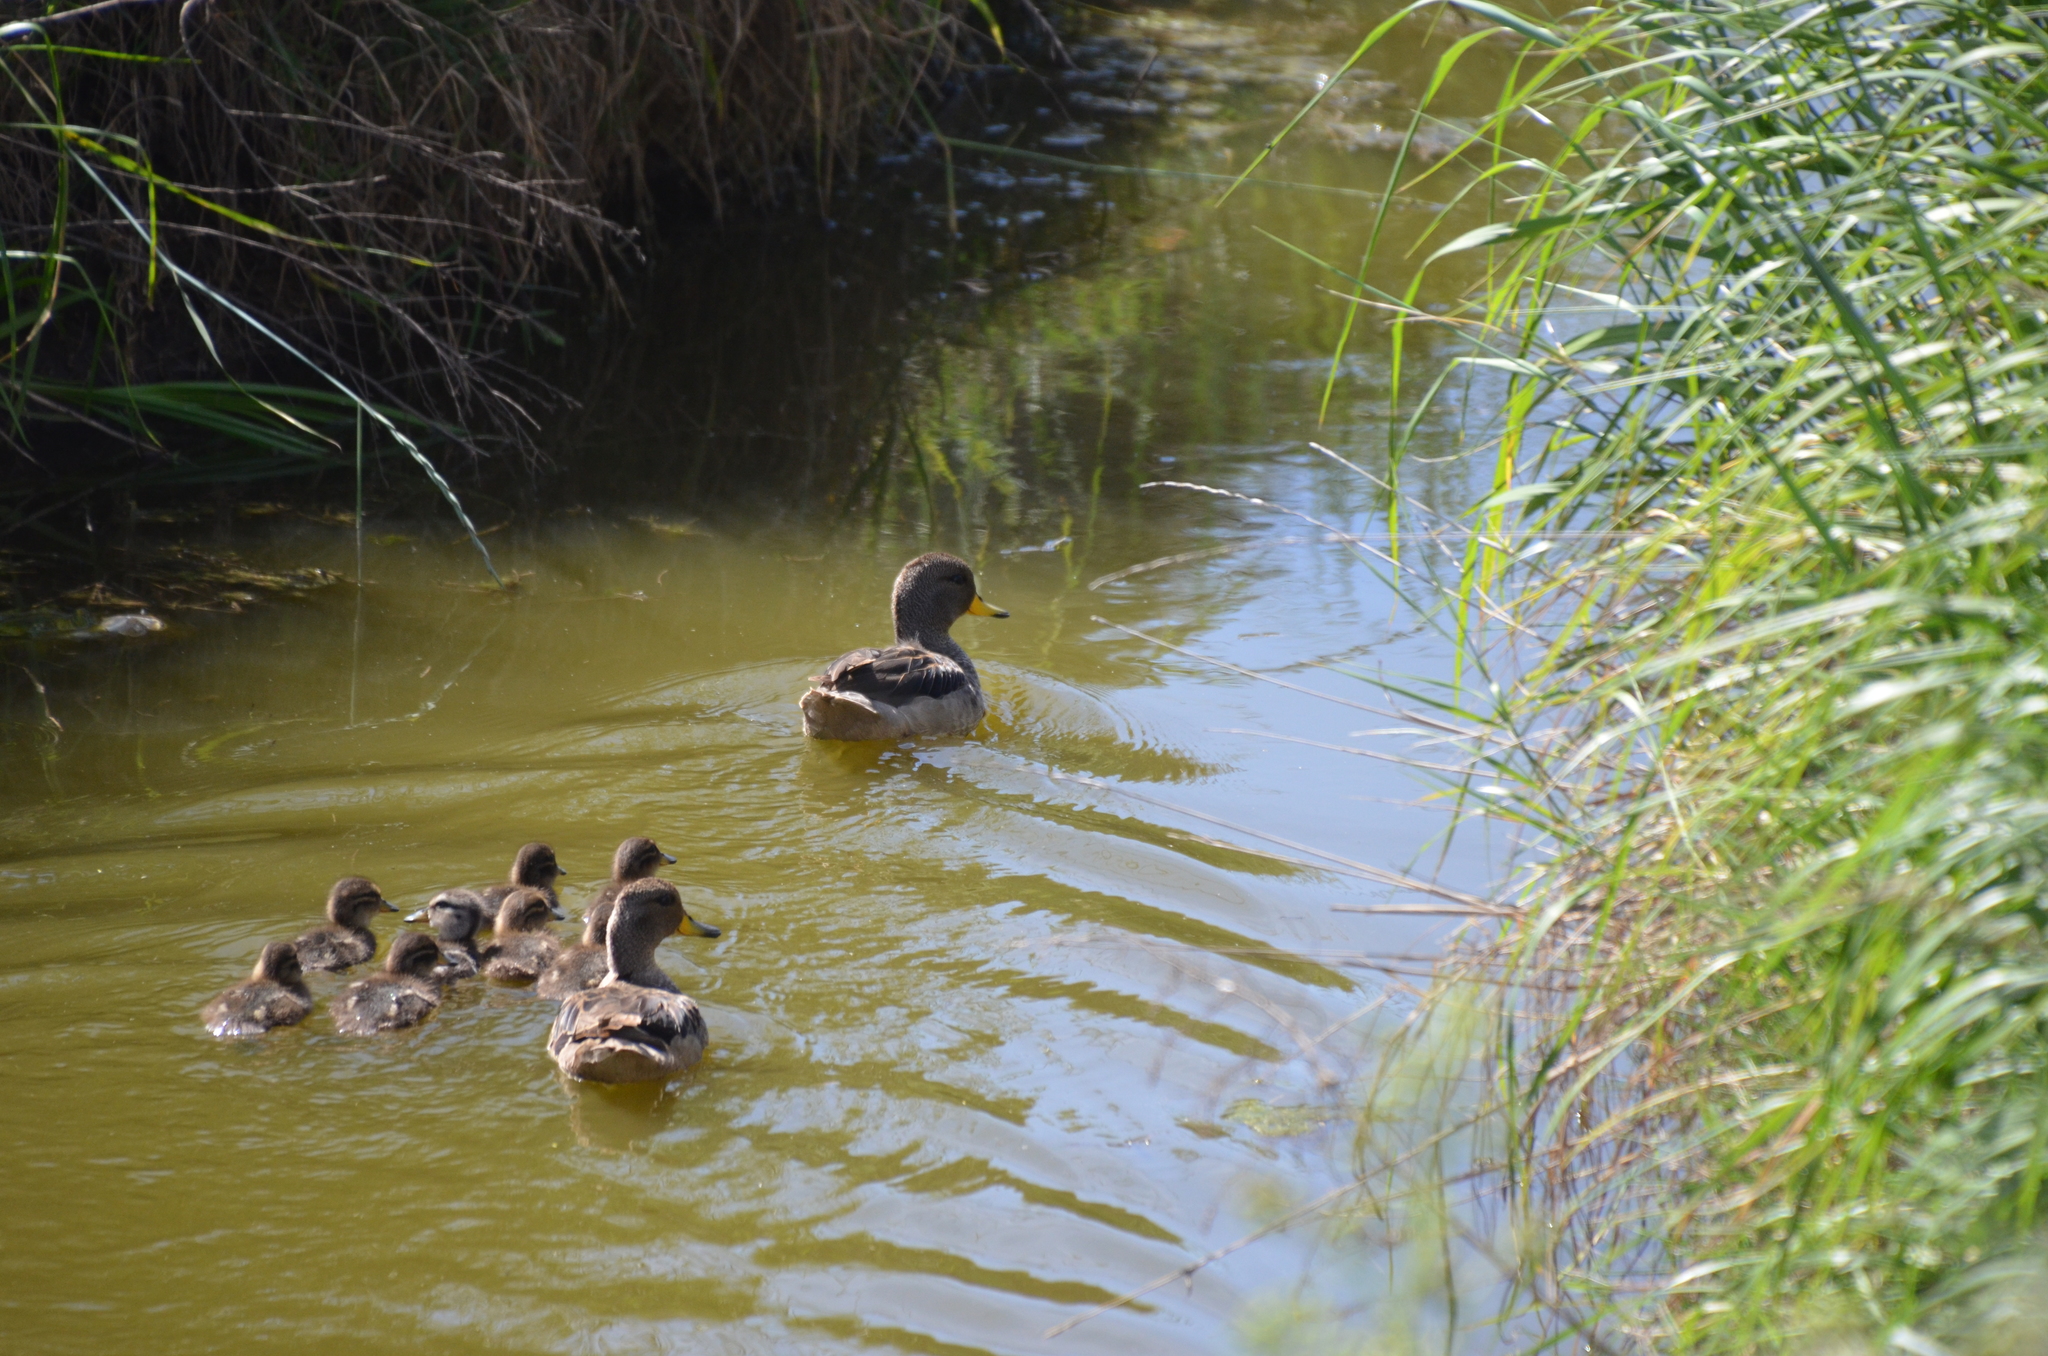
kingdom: Animalia
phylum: Chordata
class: Aves
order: Anseriformes
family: Anatidae
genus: Anas
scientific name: Anas flavirostris
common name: Yellow-billed teal
